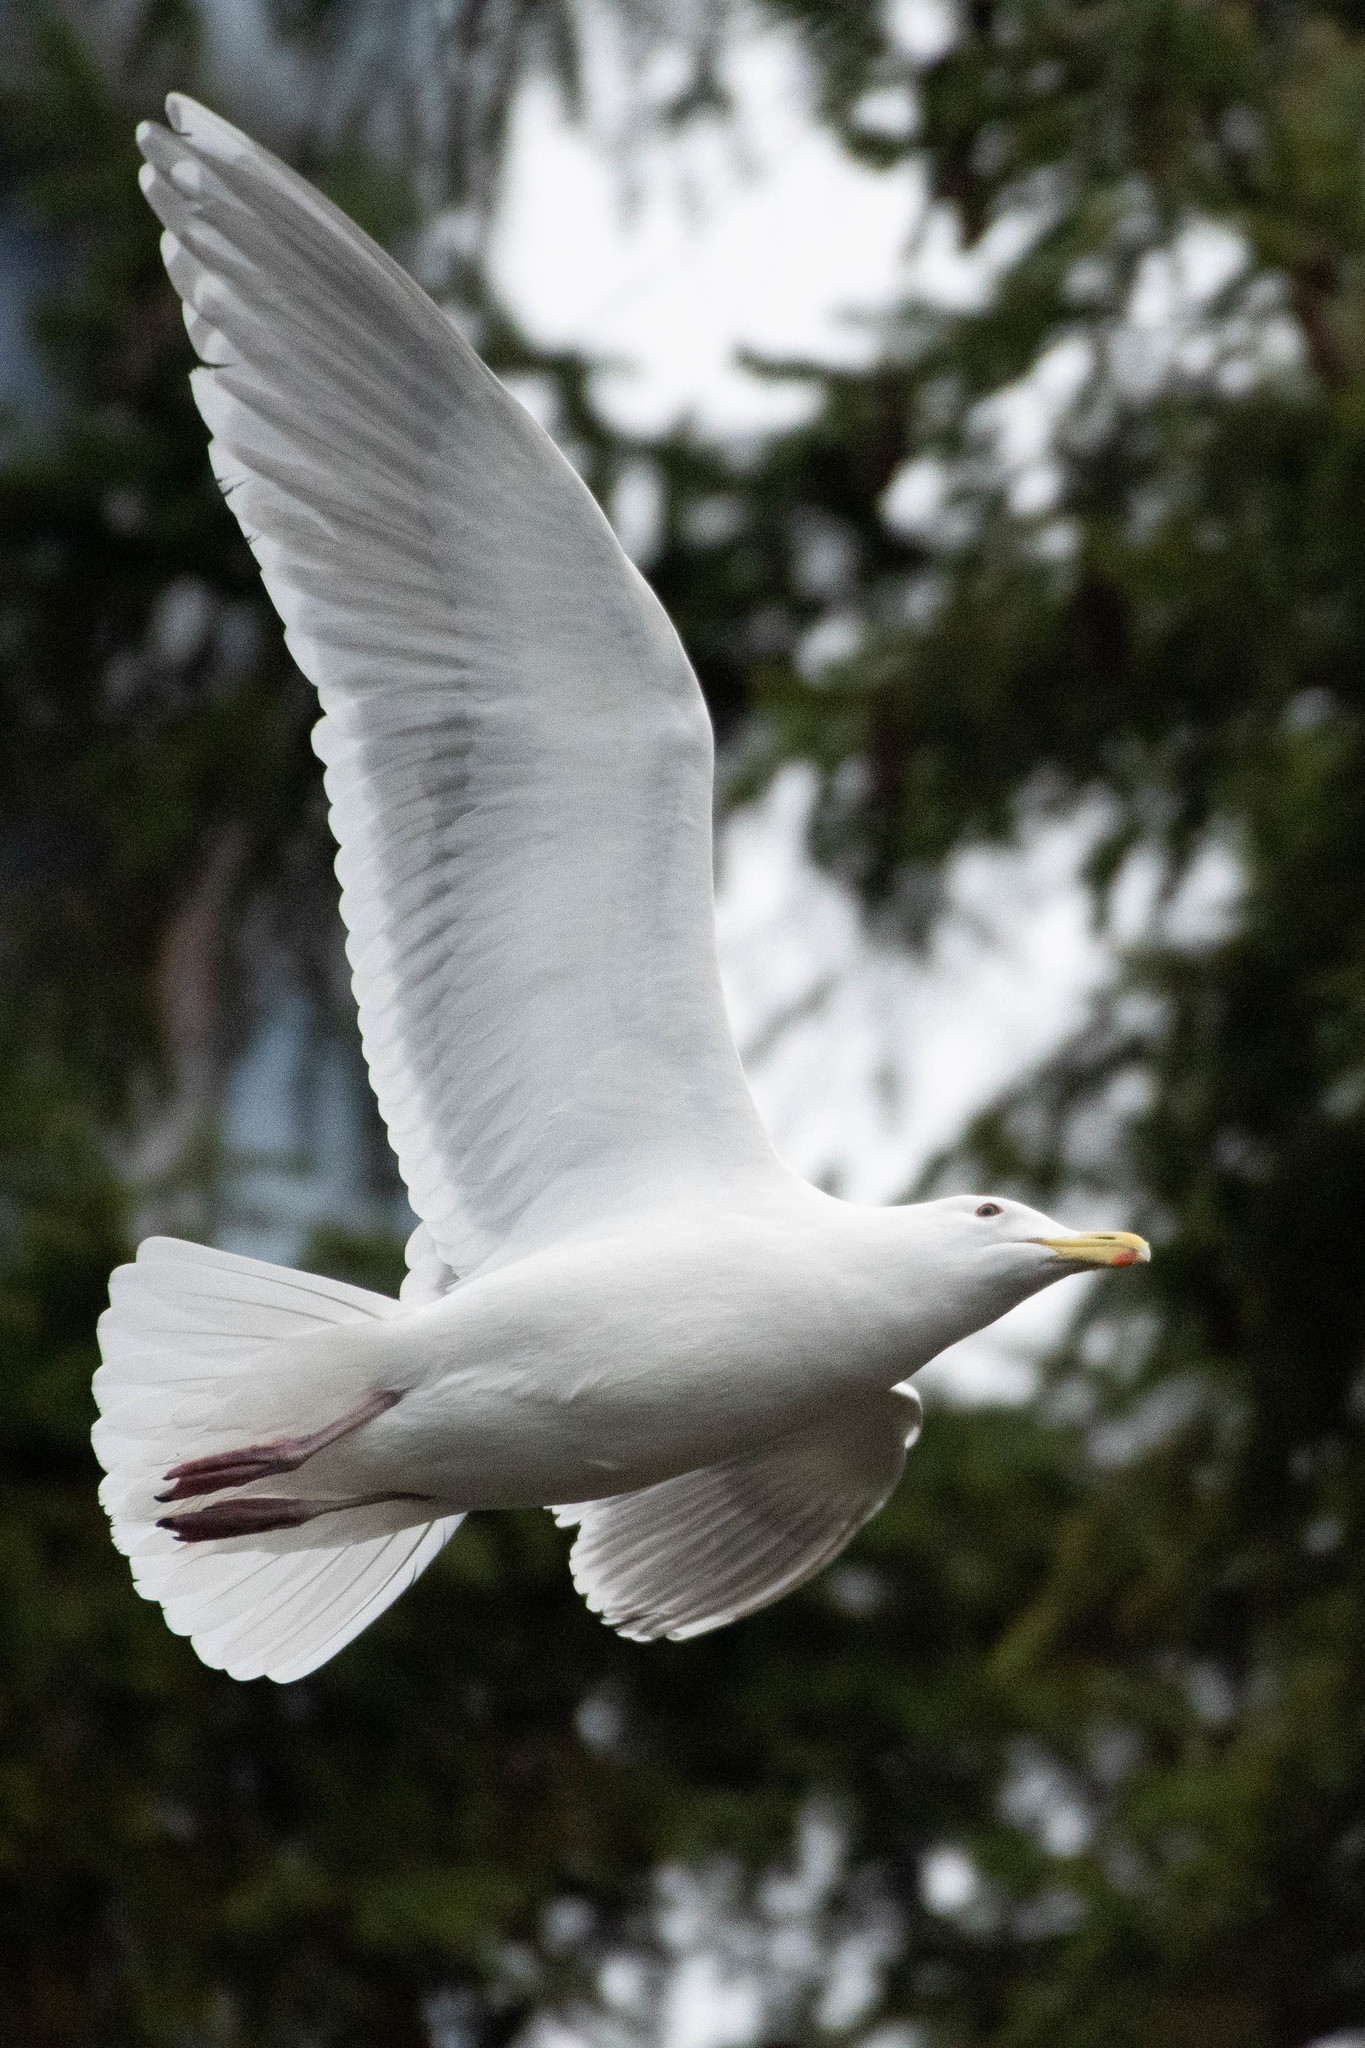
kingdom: Animalia
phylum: Chordata
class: Aves
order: Charadriiformes
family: Laridae
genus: Larus
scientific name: Larus glaucescens
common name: Glaucous-winged gull
